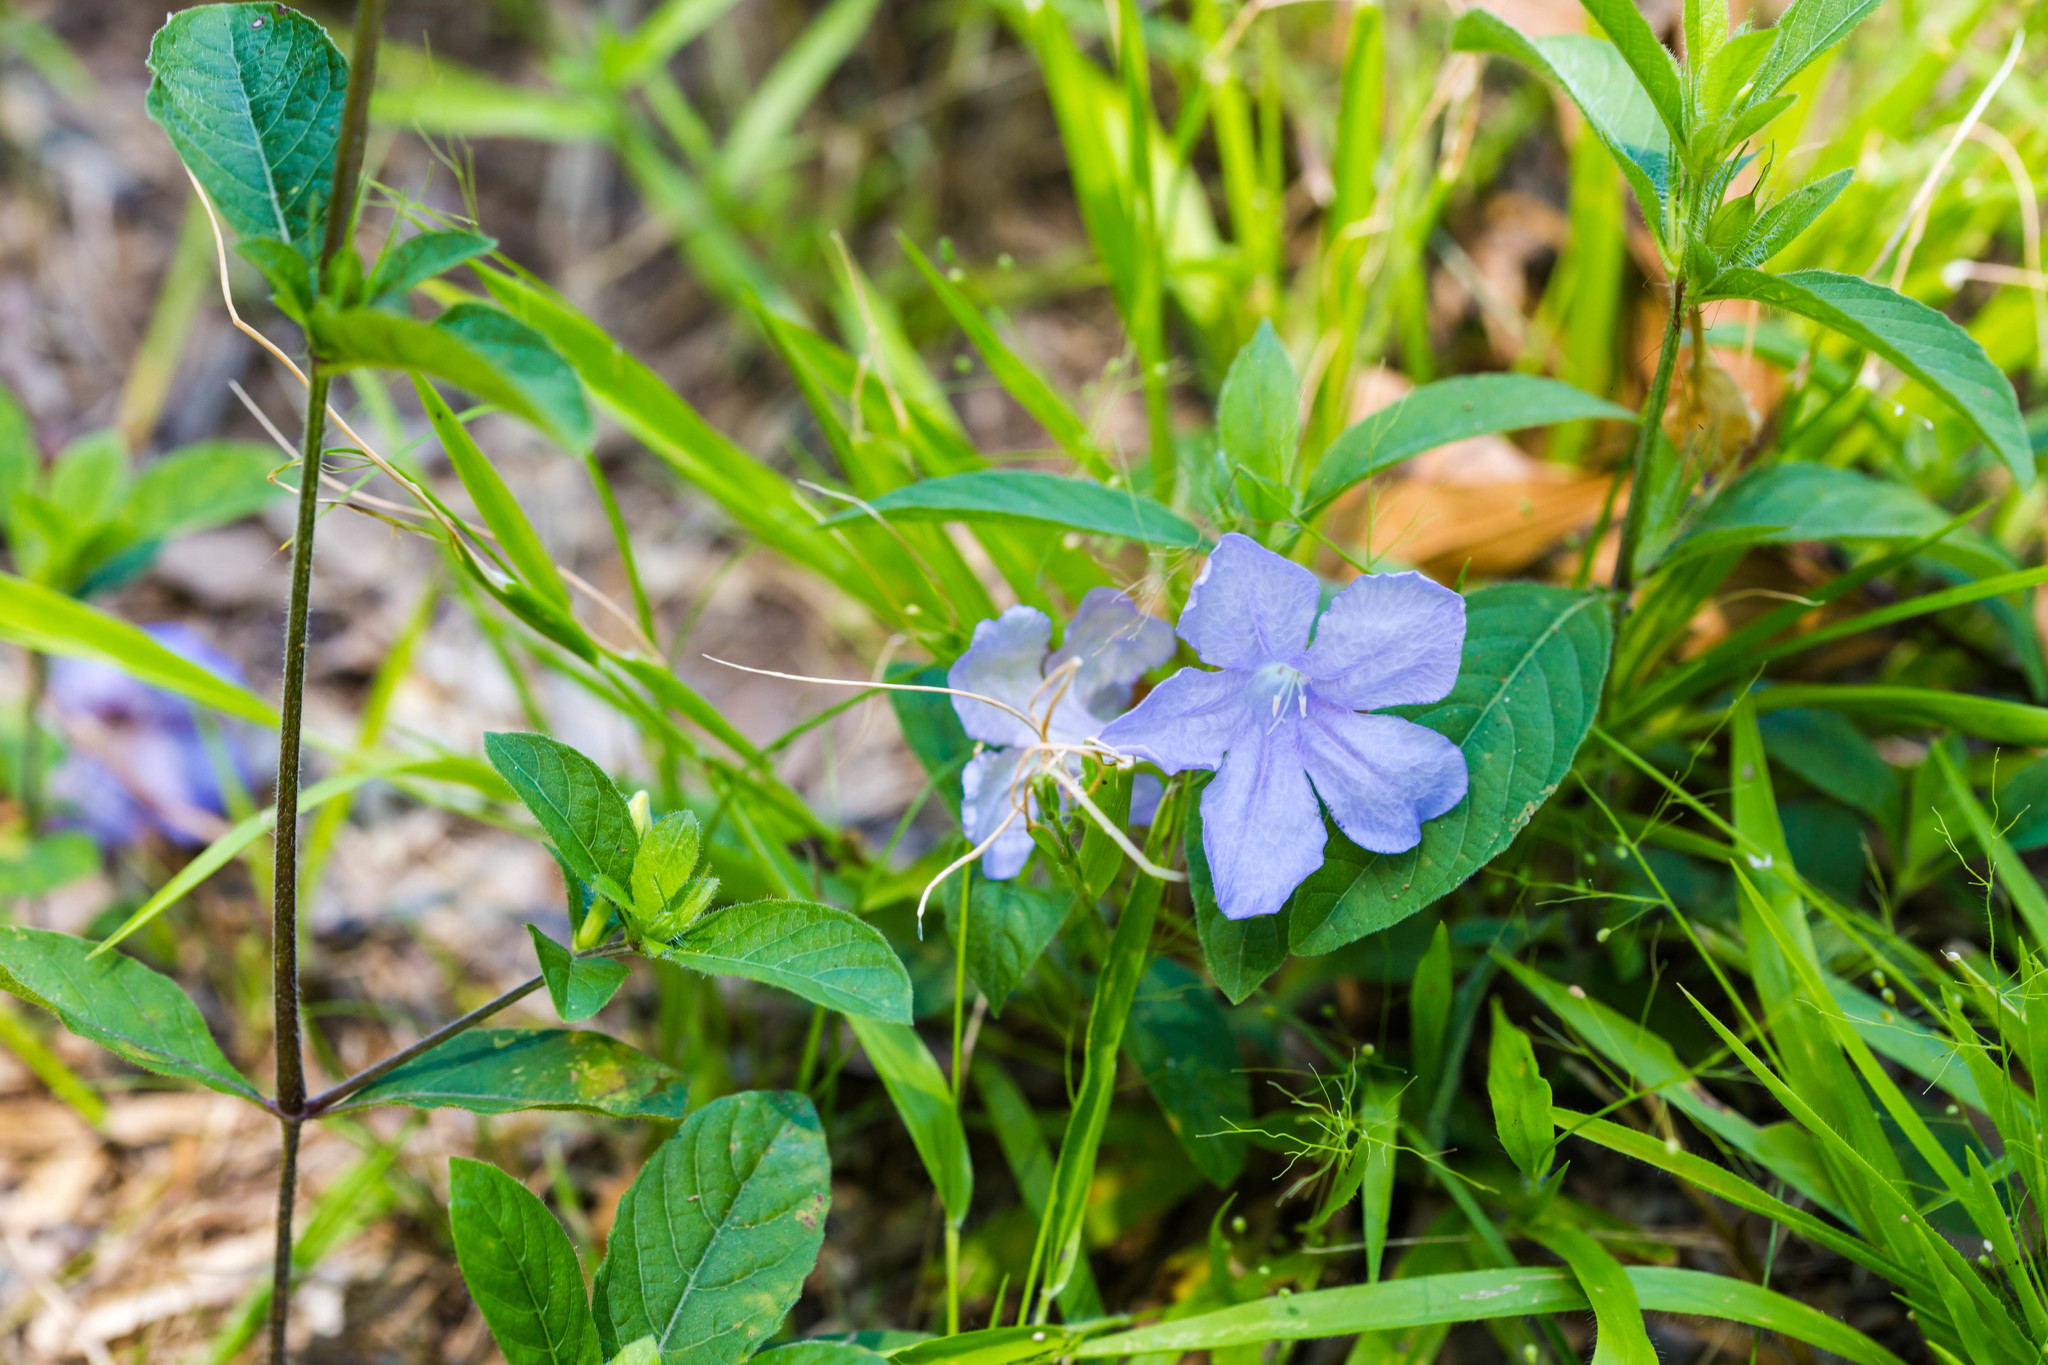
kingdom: Plantae
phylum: Tracheophyta
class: Magnoliopsida
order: Lamiales
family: Acanthaceae
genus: Ruellia
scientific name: Ruellia caroliniensis
